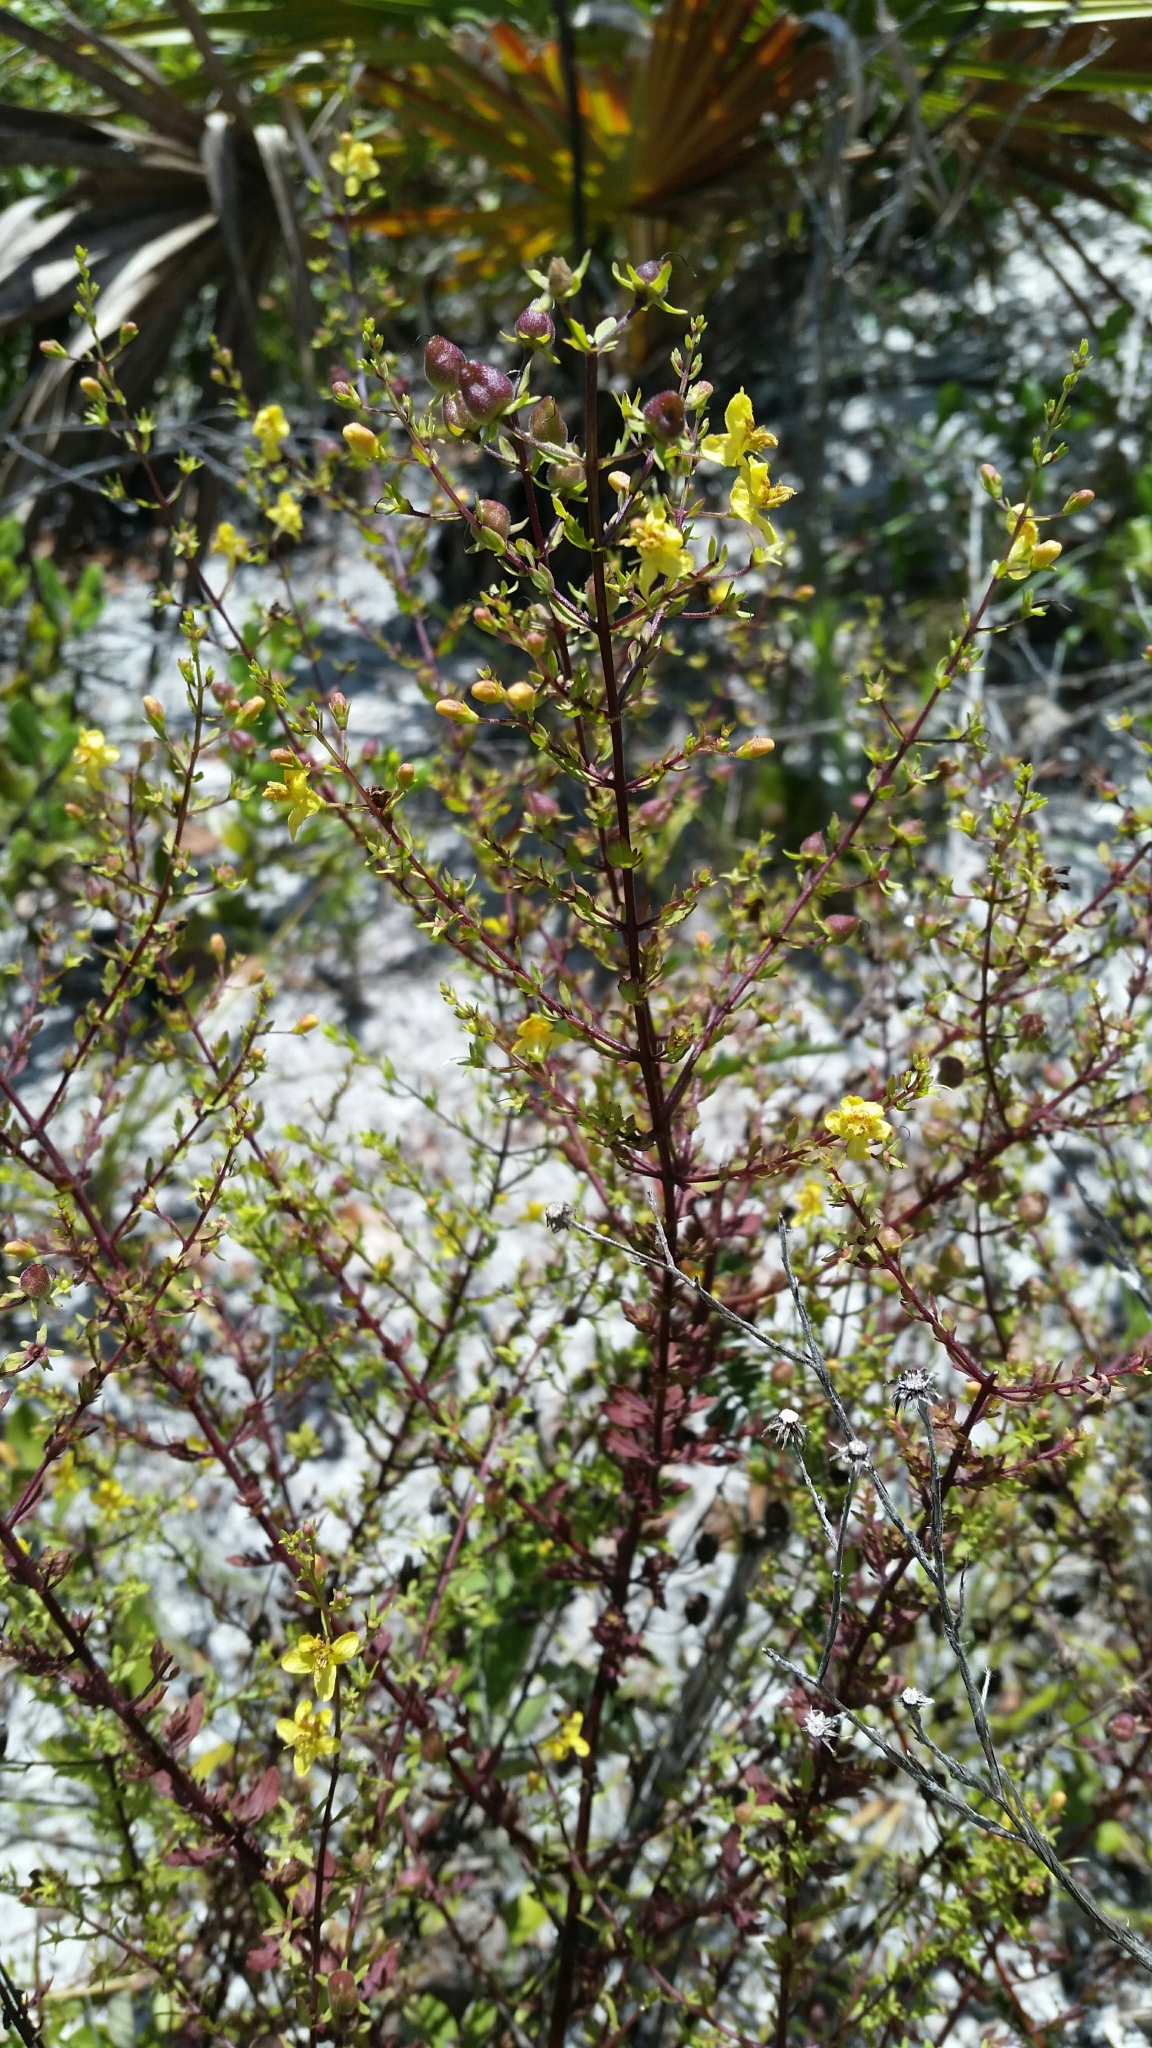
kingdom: Plantae
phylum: Tracheophyta
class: Magnoliopsida
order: Lamiales
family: Orobanchaceae
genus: Seymeria
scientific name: Seymeria pectinata
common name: Piedmont black-senna
